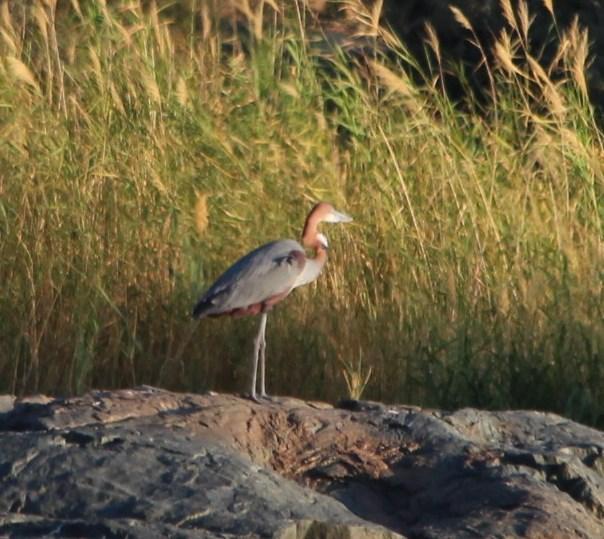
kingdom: Animalia
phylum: Chordata
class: Aves
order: Pelecaniformes
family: Ardeidae
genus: Ardea
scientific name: Ardea goliath
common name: Goliath heron
